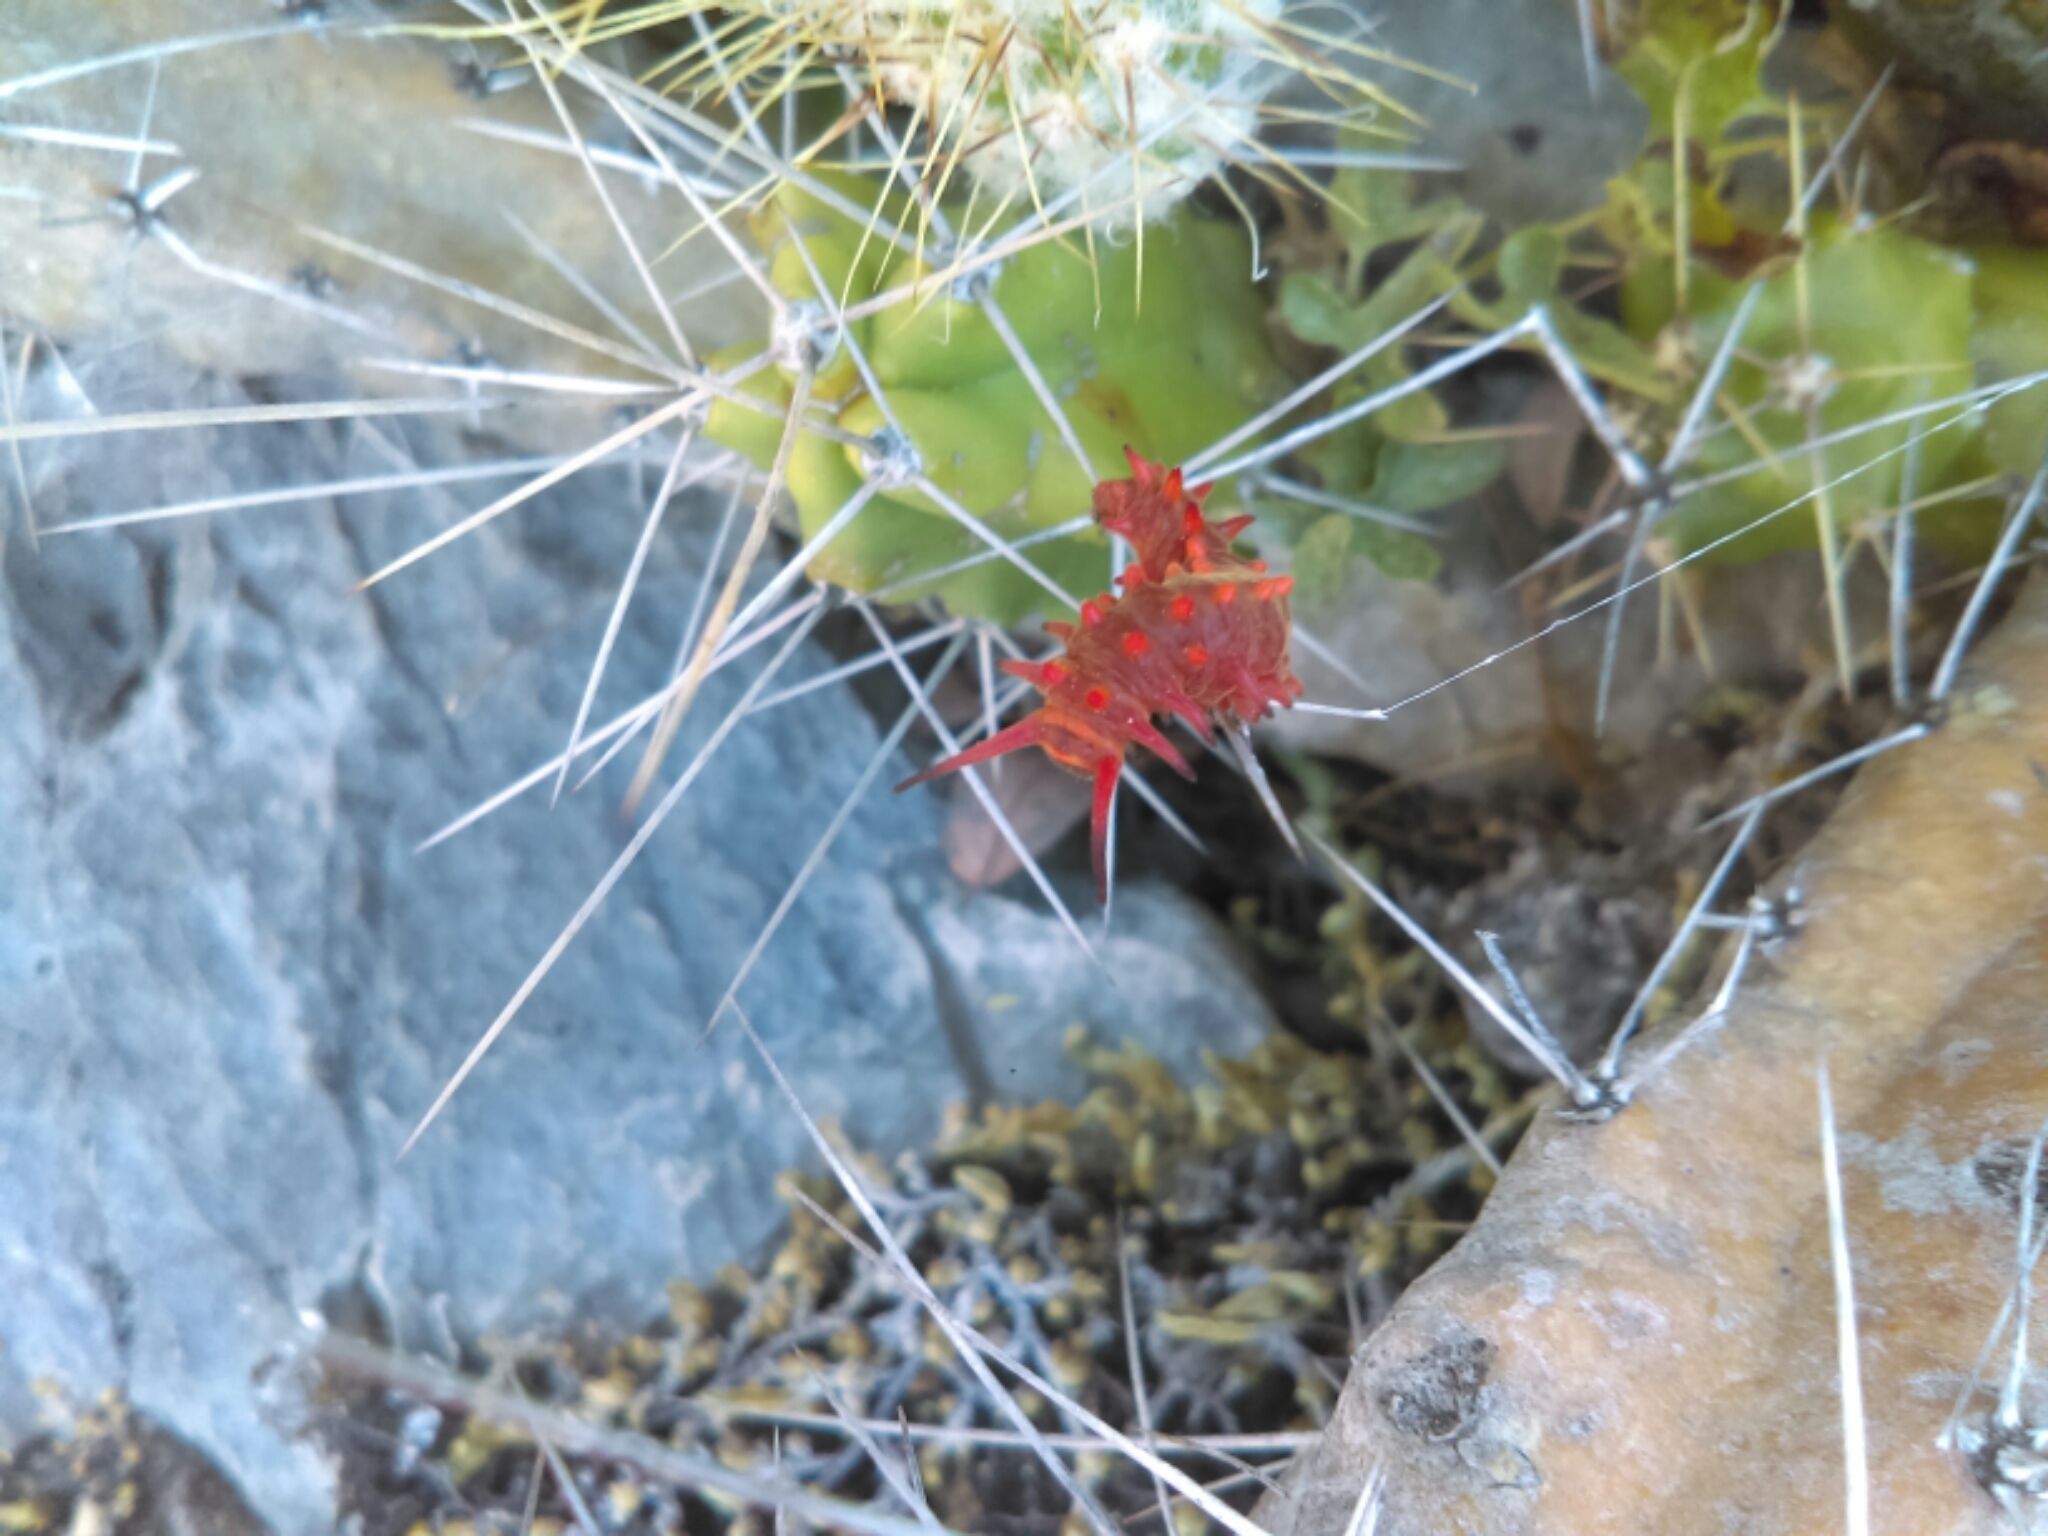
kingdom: Animalia
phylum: Arthropoda
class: Insecta
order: Lepidoptera
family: Papilionidae
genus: Battus
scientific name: Battus philenor
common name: Pipevine swallowtail
